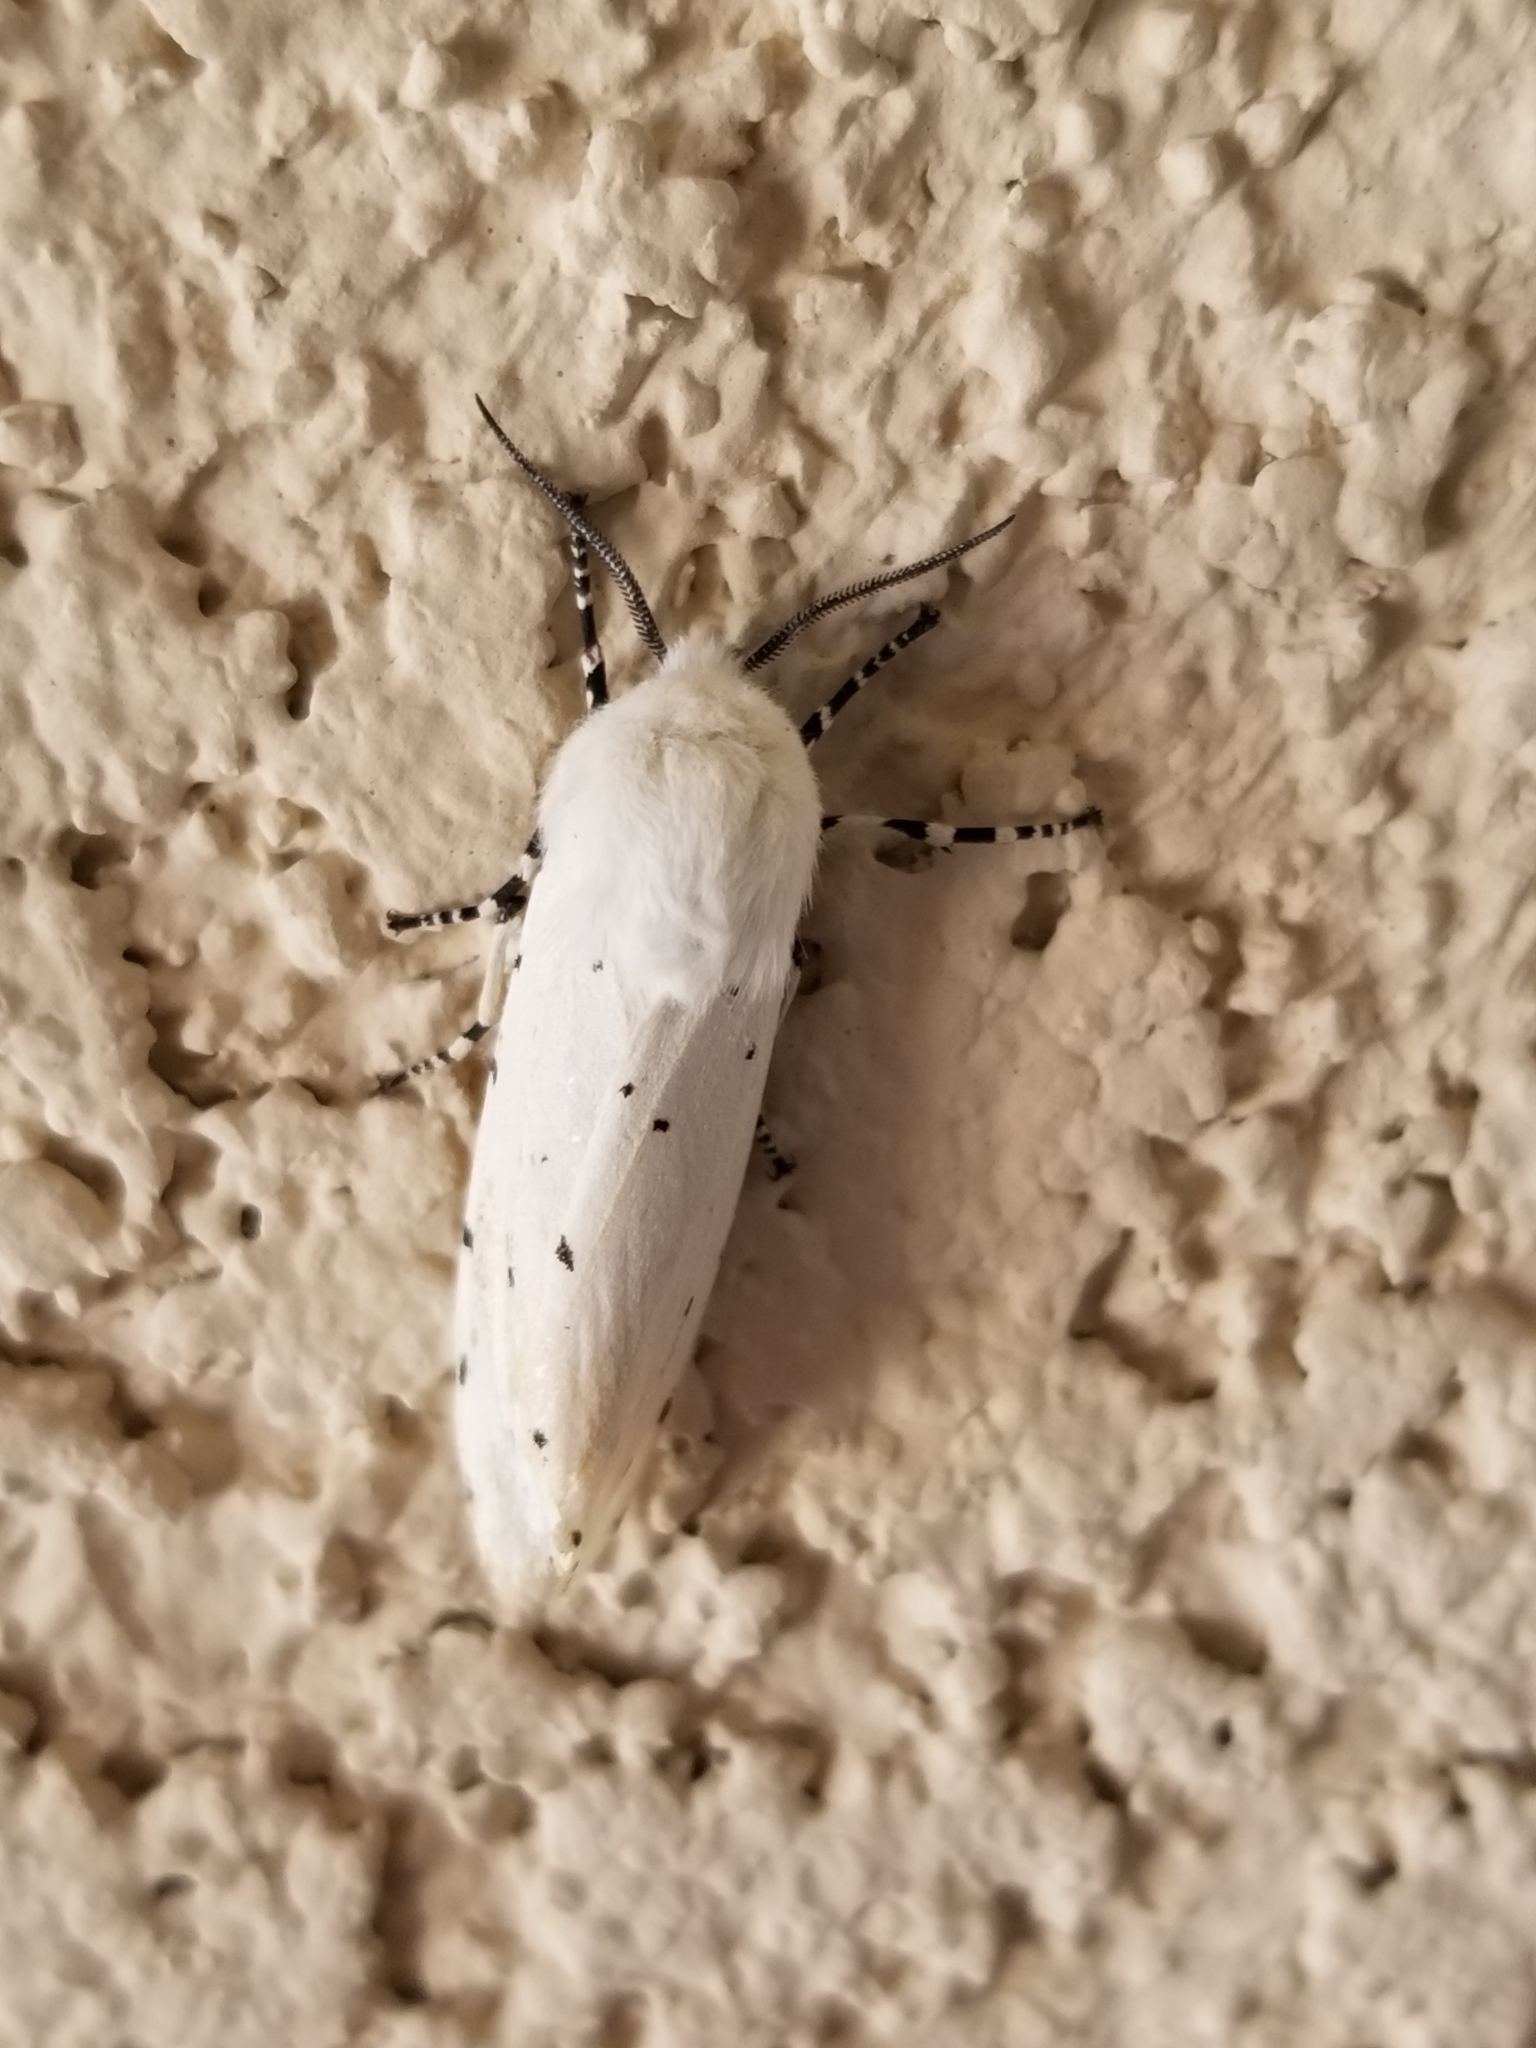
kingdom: Animalia
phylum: Arthropoda
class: Insecta
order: Lepidoptera
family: Erebidae
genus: Estigmene
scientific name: Estigmene acrea
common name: Salt marsh moth
